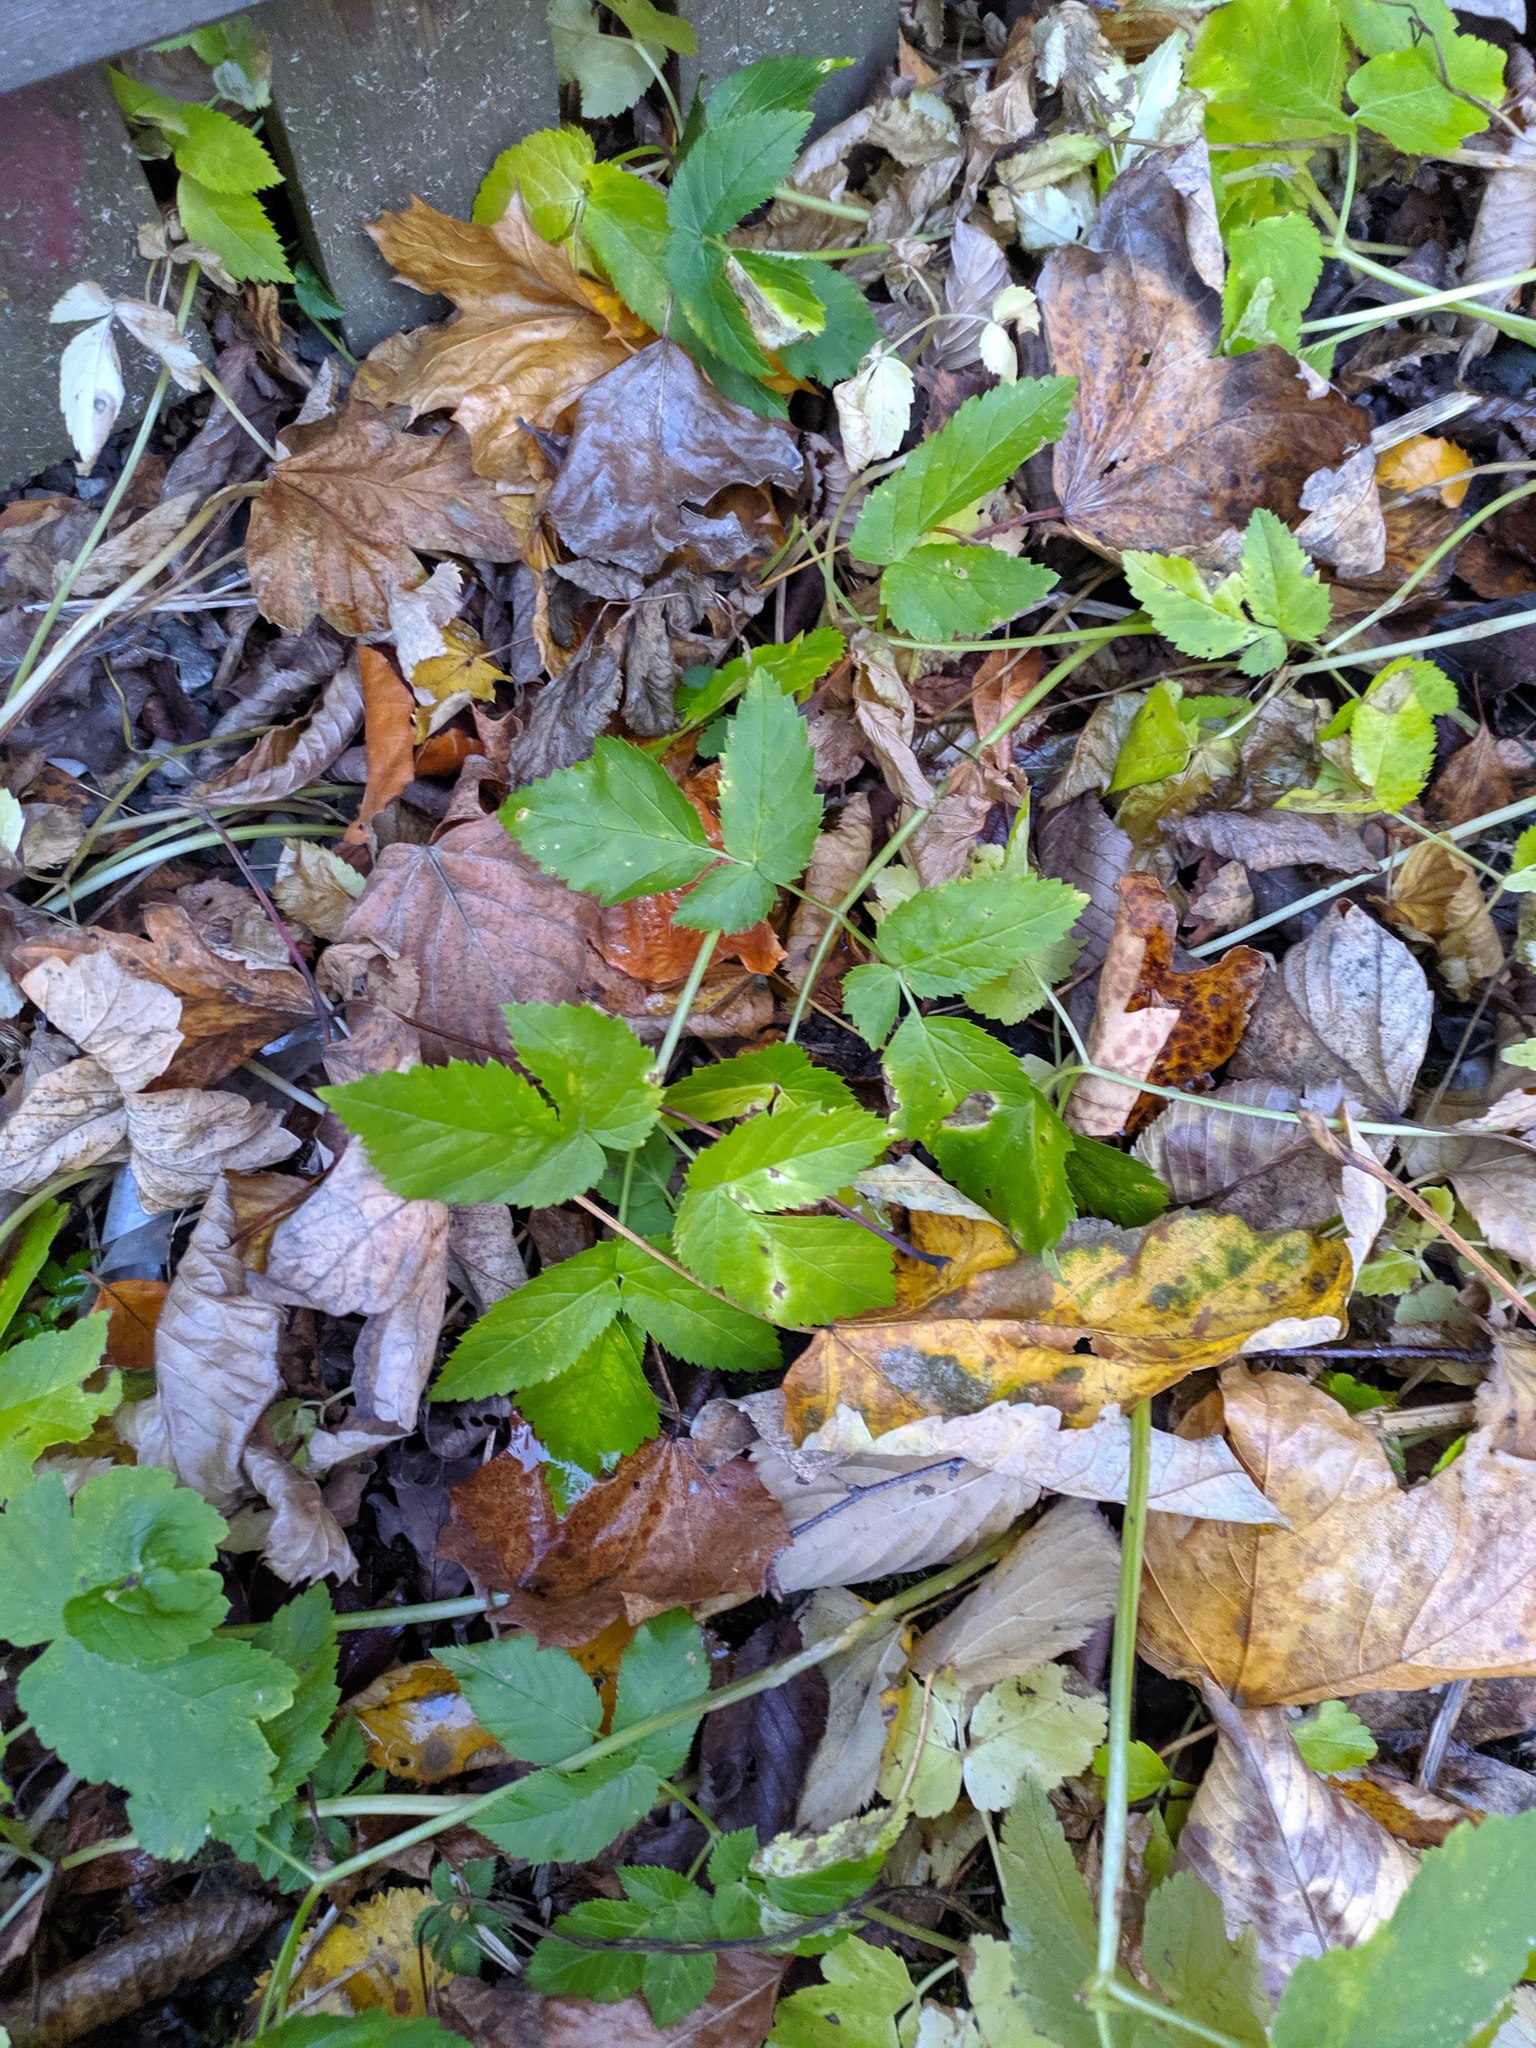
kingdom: Plantae
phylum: Tracheophyta
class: Magnoliopsida
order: Apiales
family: Apiaceae
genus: Aegopodium
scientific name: Aegopodium podagraria
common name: Ground-elder
